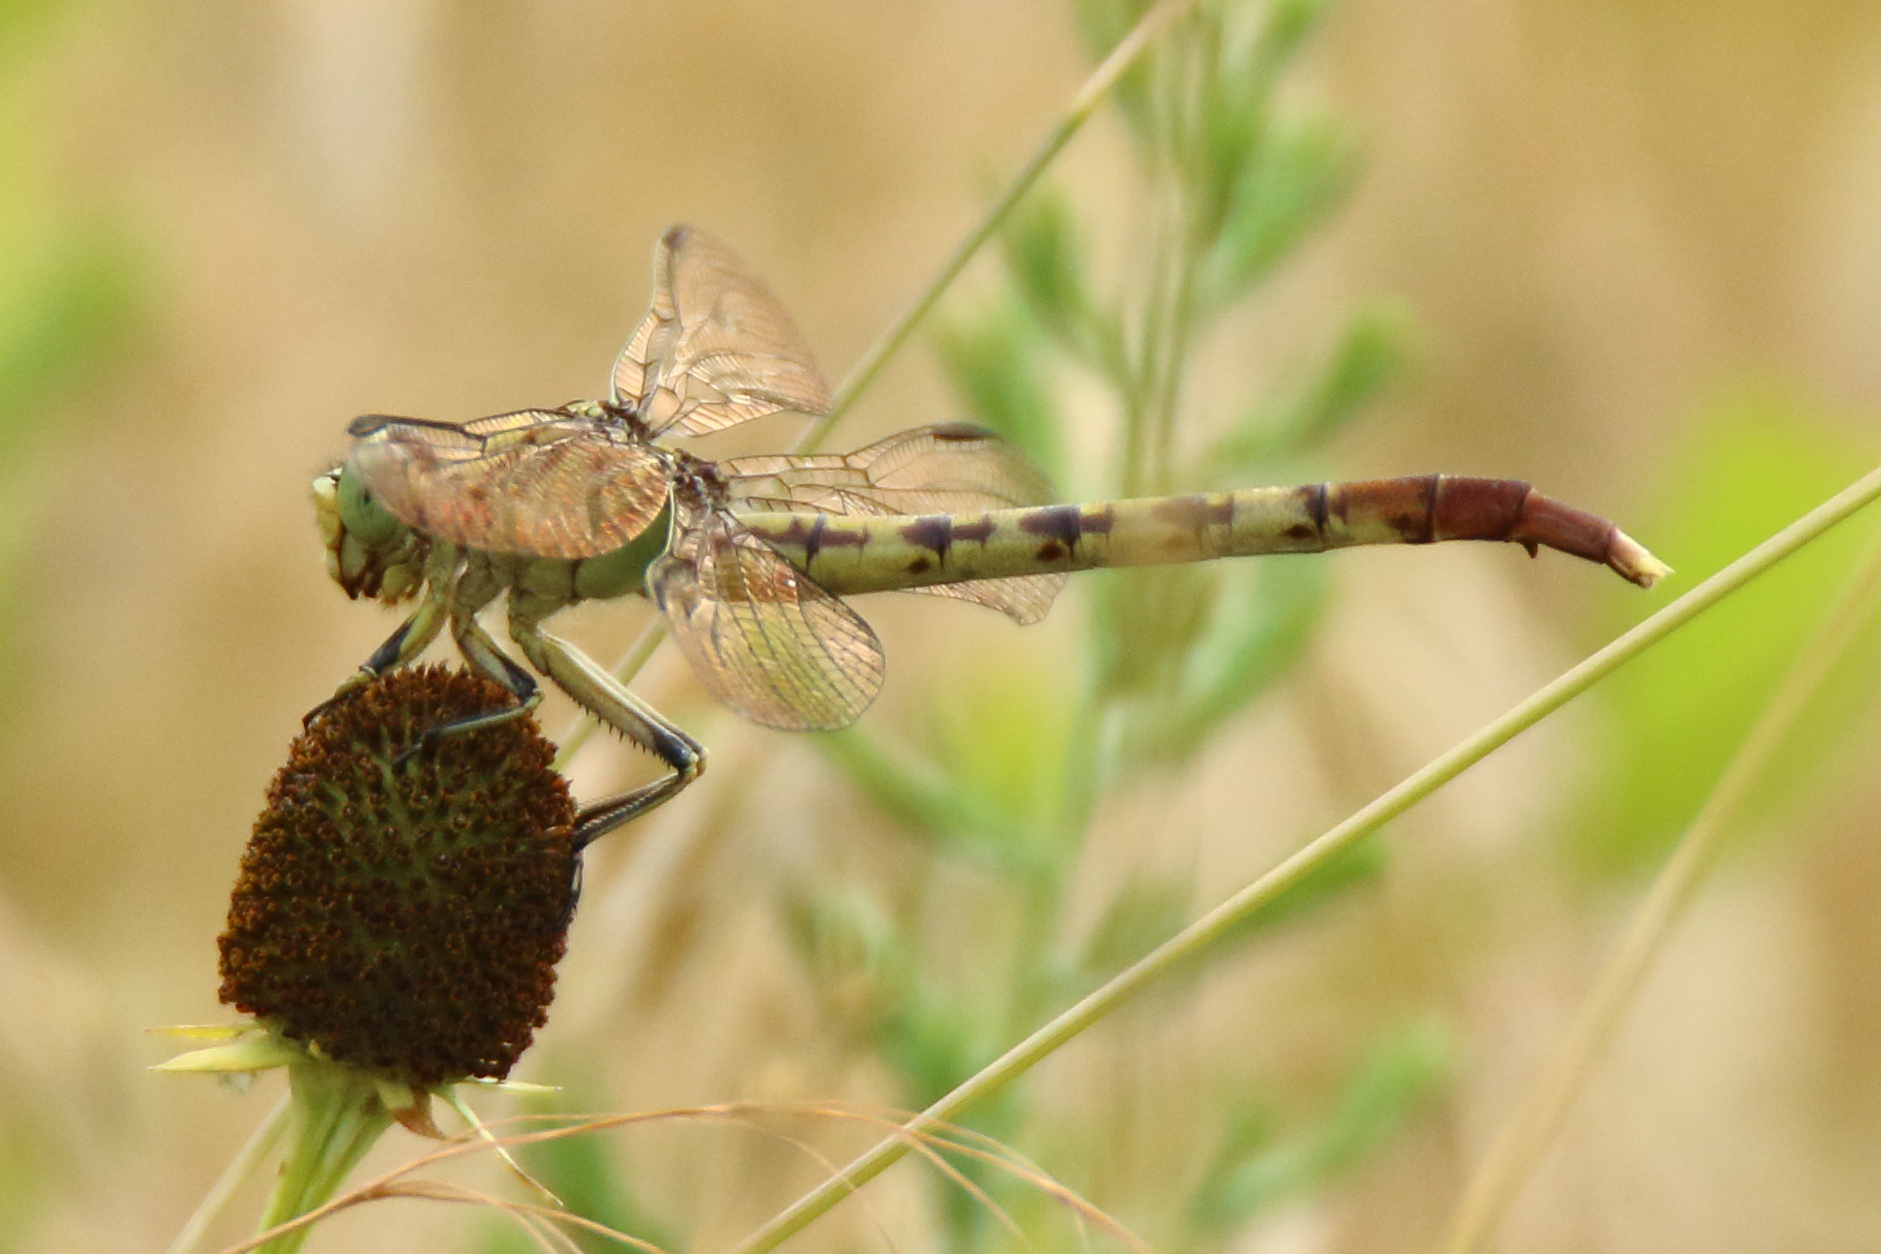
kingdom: Animalia
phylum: Arthropoda
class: Insecta
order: Odonata
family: Gomphidae
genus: Arigomphus
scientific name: Arigomphus submedianus
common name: Jade clubtail
